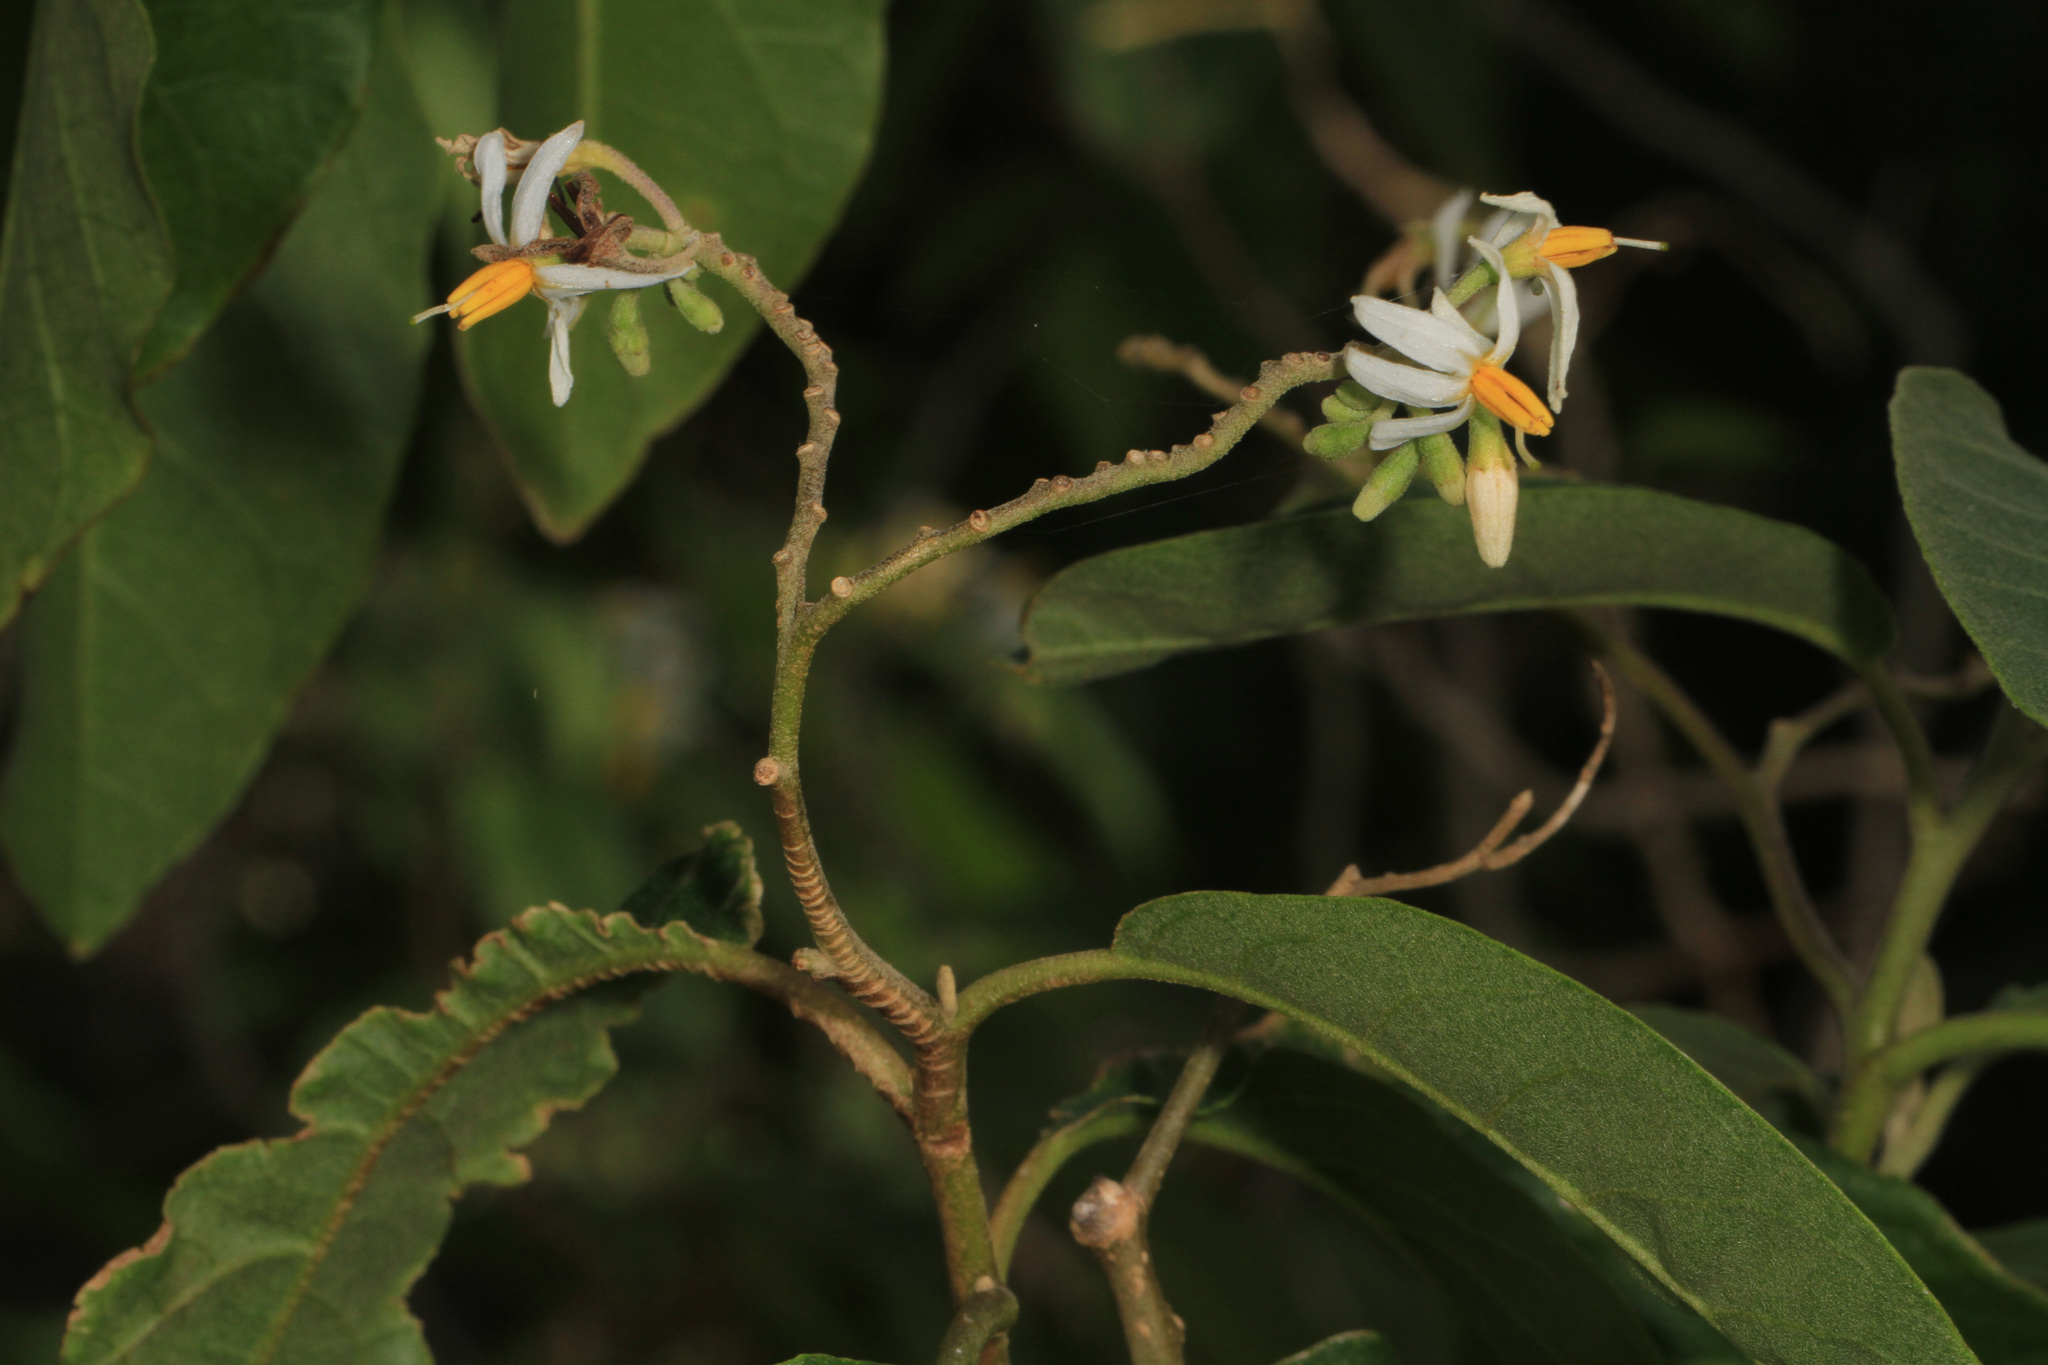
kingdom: Plantae
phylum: Tracheophyta
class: Magnoliopsida
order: Solanales
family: Solanaceae
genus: Solanum
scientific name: Solanum donianum
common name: Mullein nightshade
